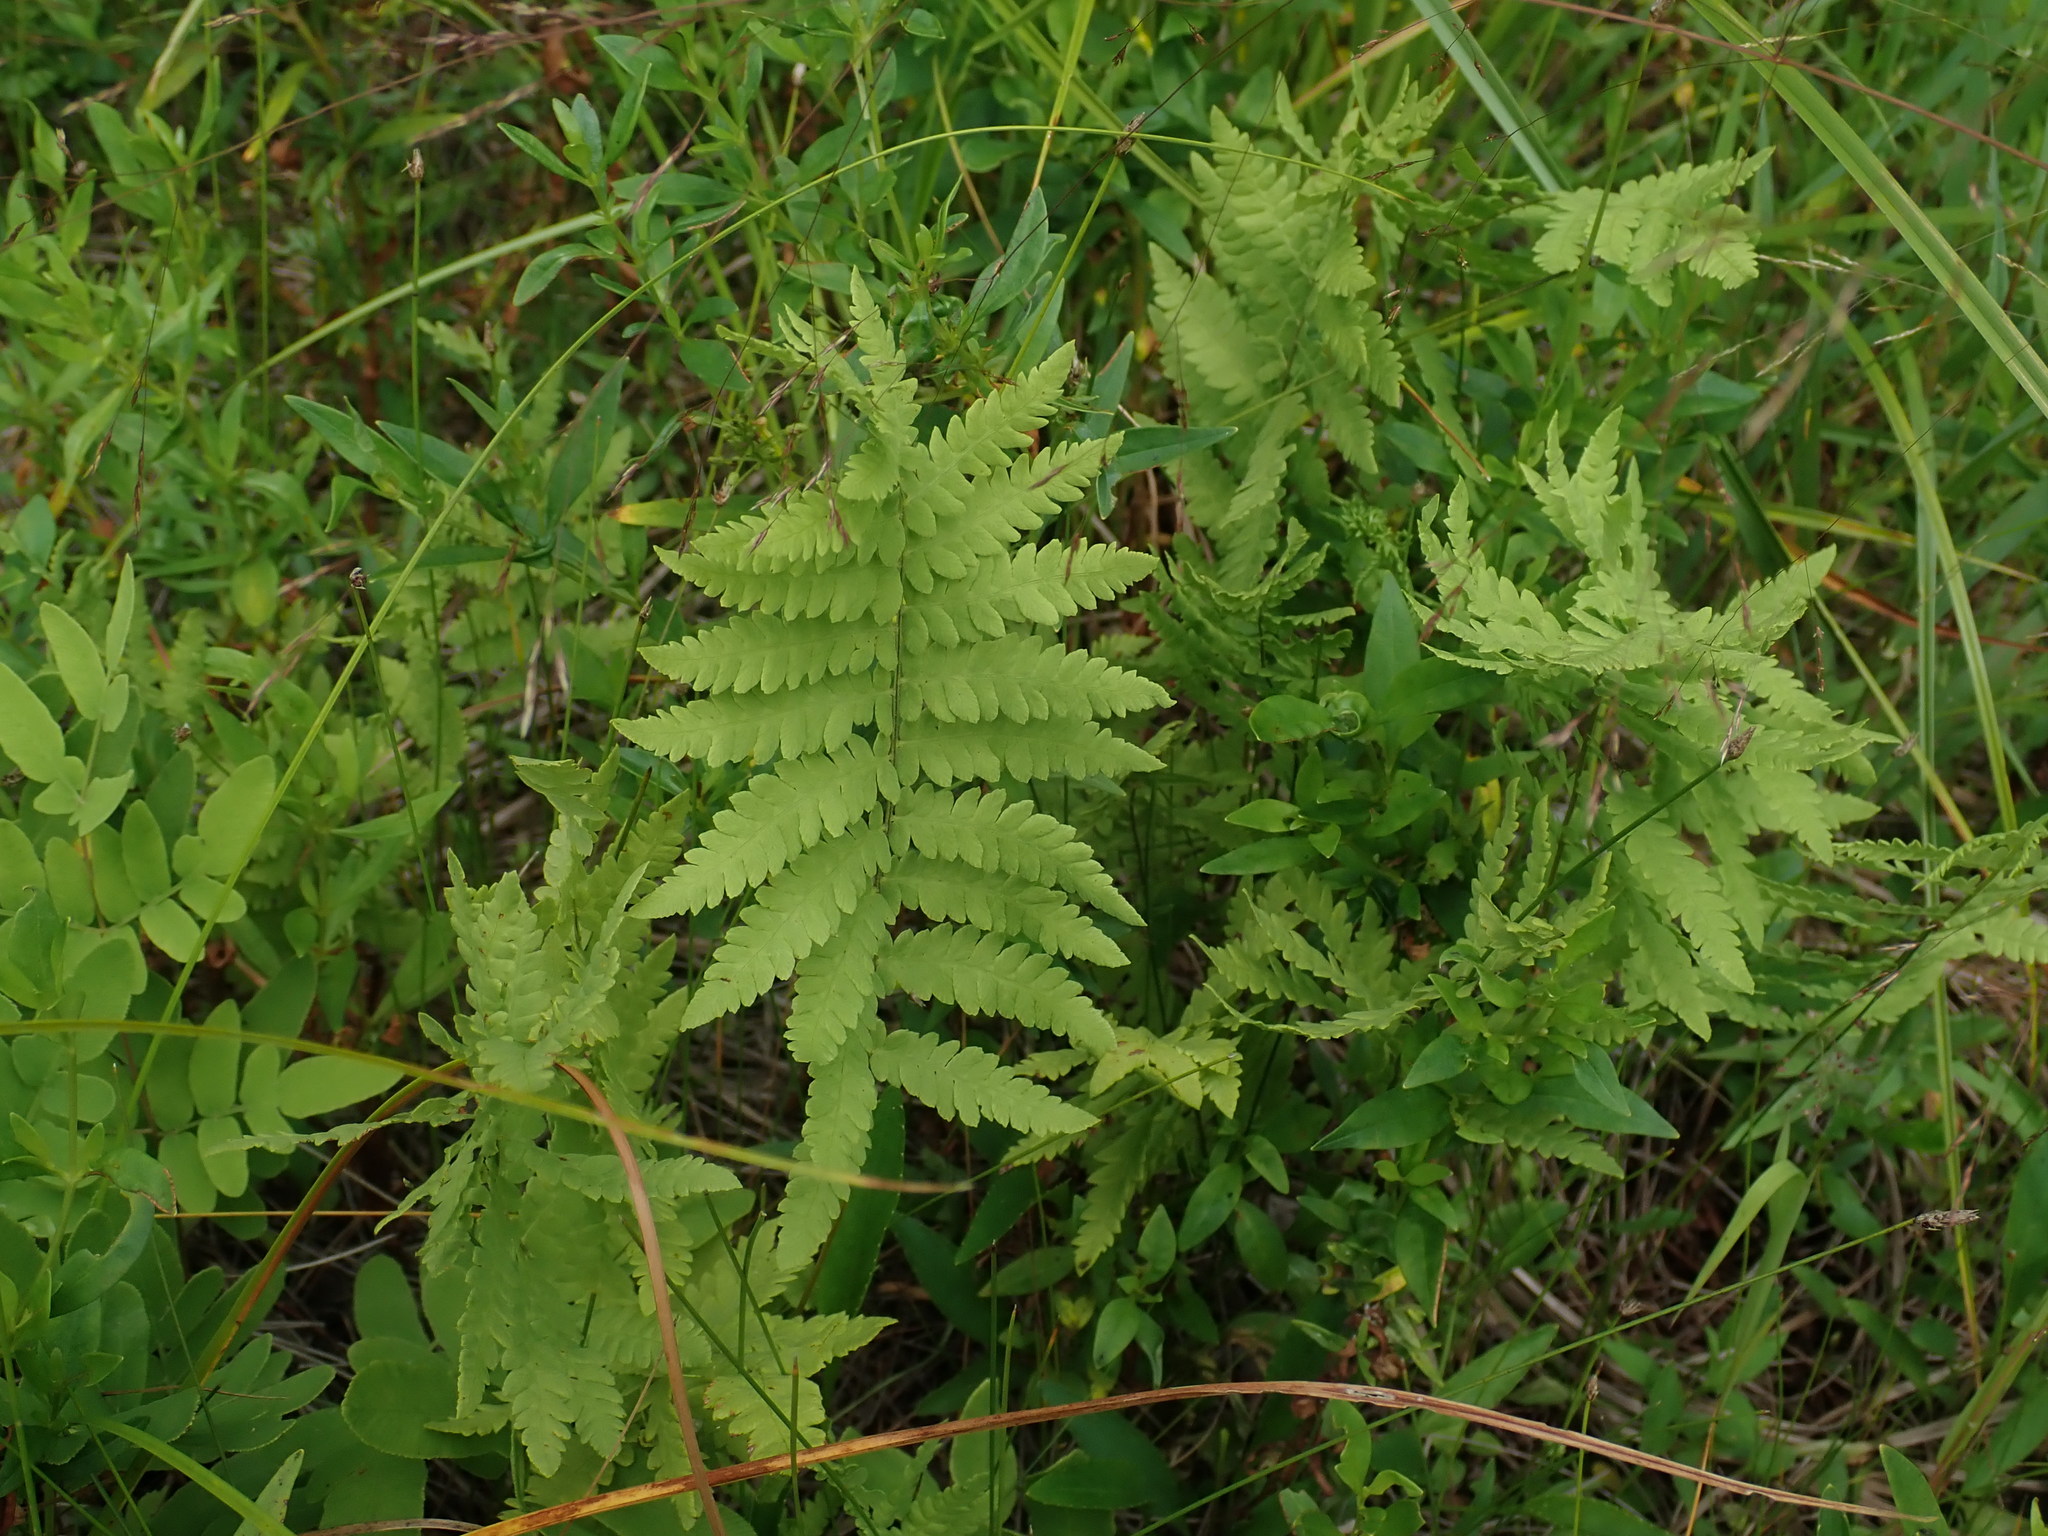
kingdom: Plantae
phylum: Tracheophyta
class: Polypodiopsida
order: Polypodiales
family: Thelypteridaceae
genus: Thelypteris
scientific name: Thelypteris palustris
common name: Marsh fern
